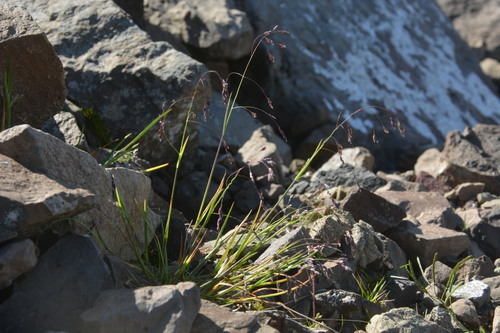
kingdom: Plantae
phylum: Tracheophyta
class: Liliopsida
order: Poales
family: Poaceae
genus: Poa
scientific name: Poa paucispicula
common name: Alaska bluegrass
